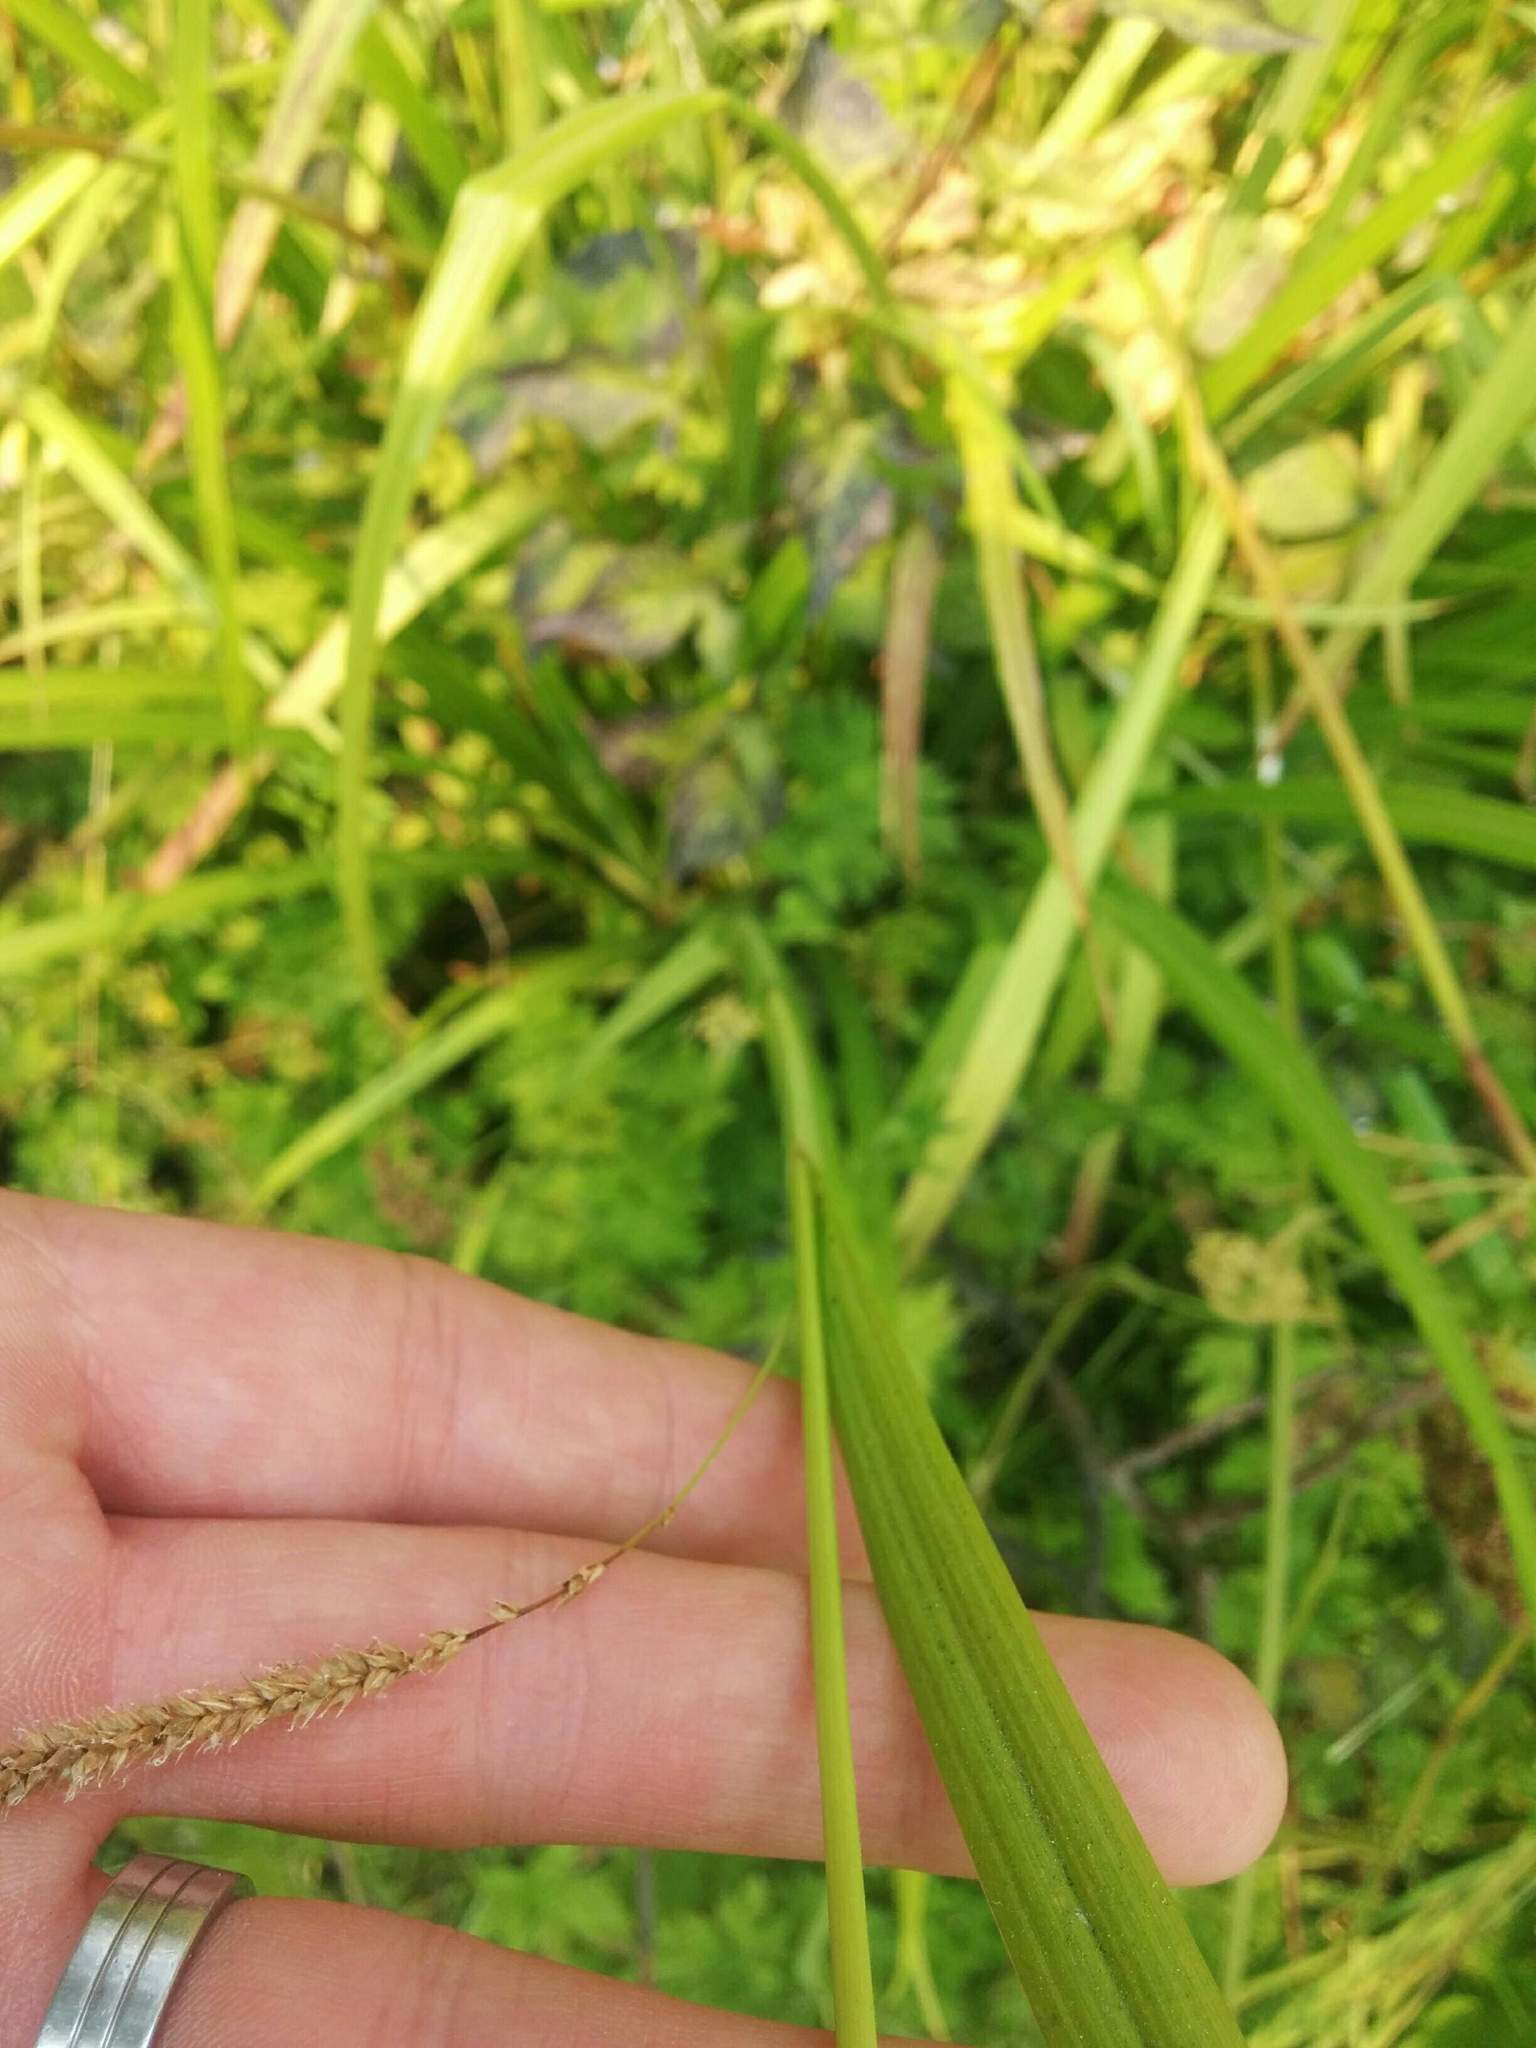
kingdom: Plantae
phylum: Tracheophyta
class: Liliopsida
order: Poales
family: Cyperaceae
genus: Carex
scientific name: Carex pendula
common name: Pendulous sedge
